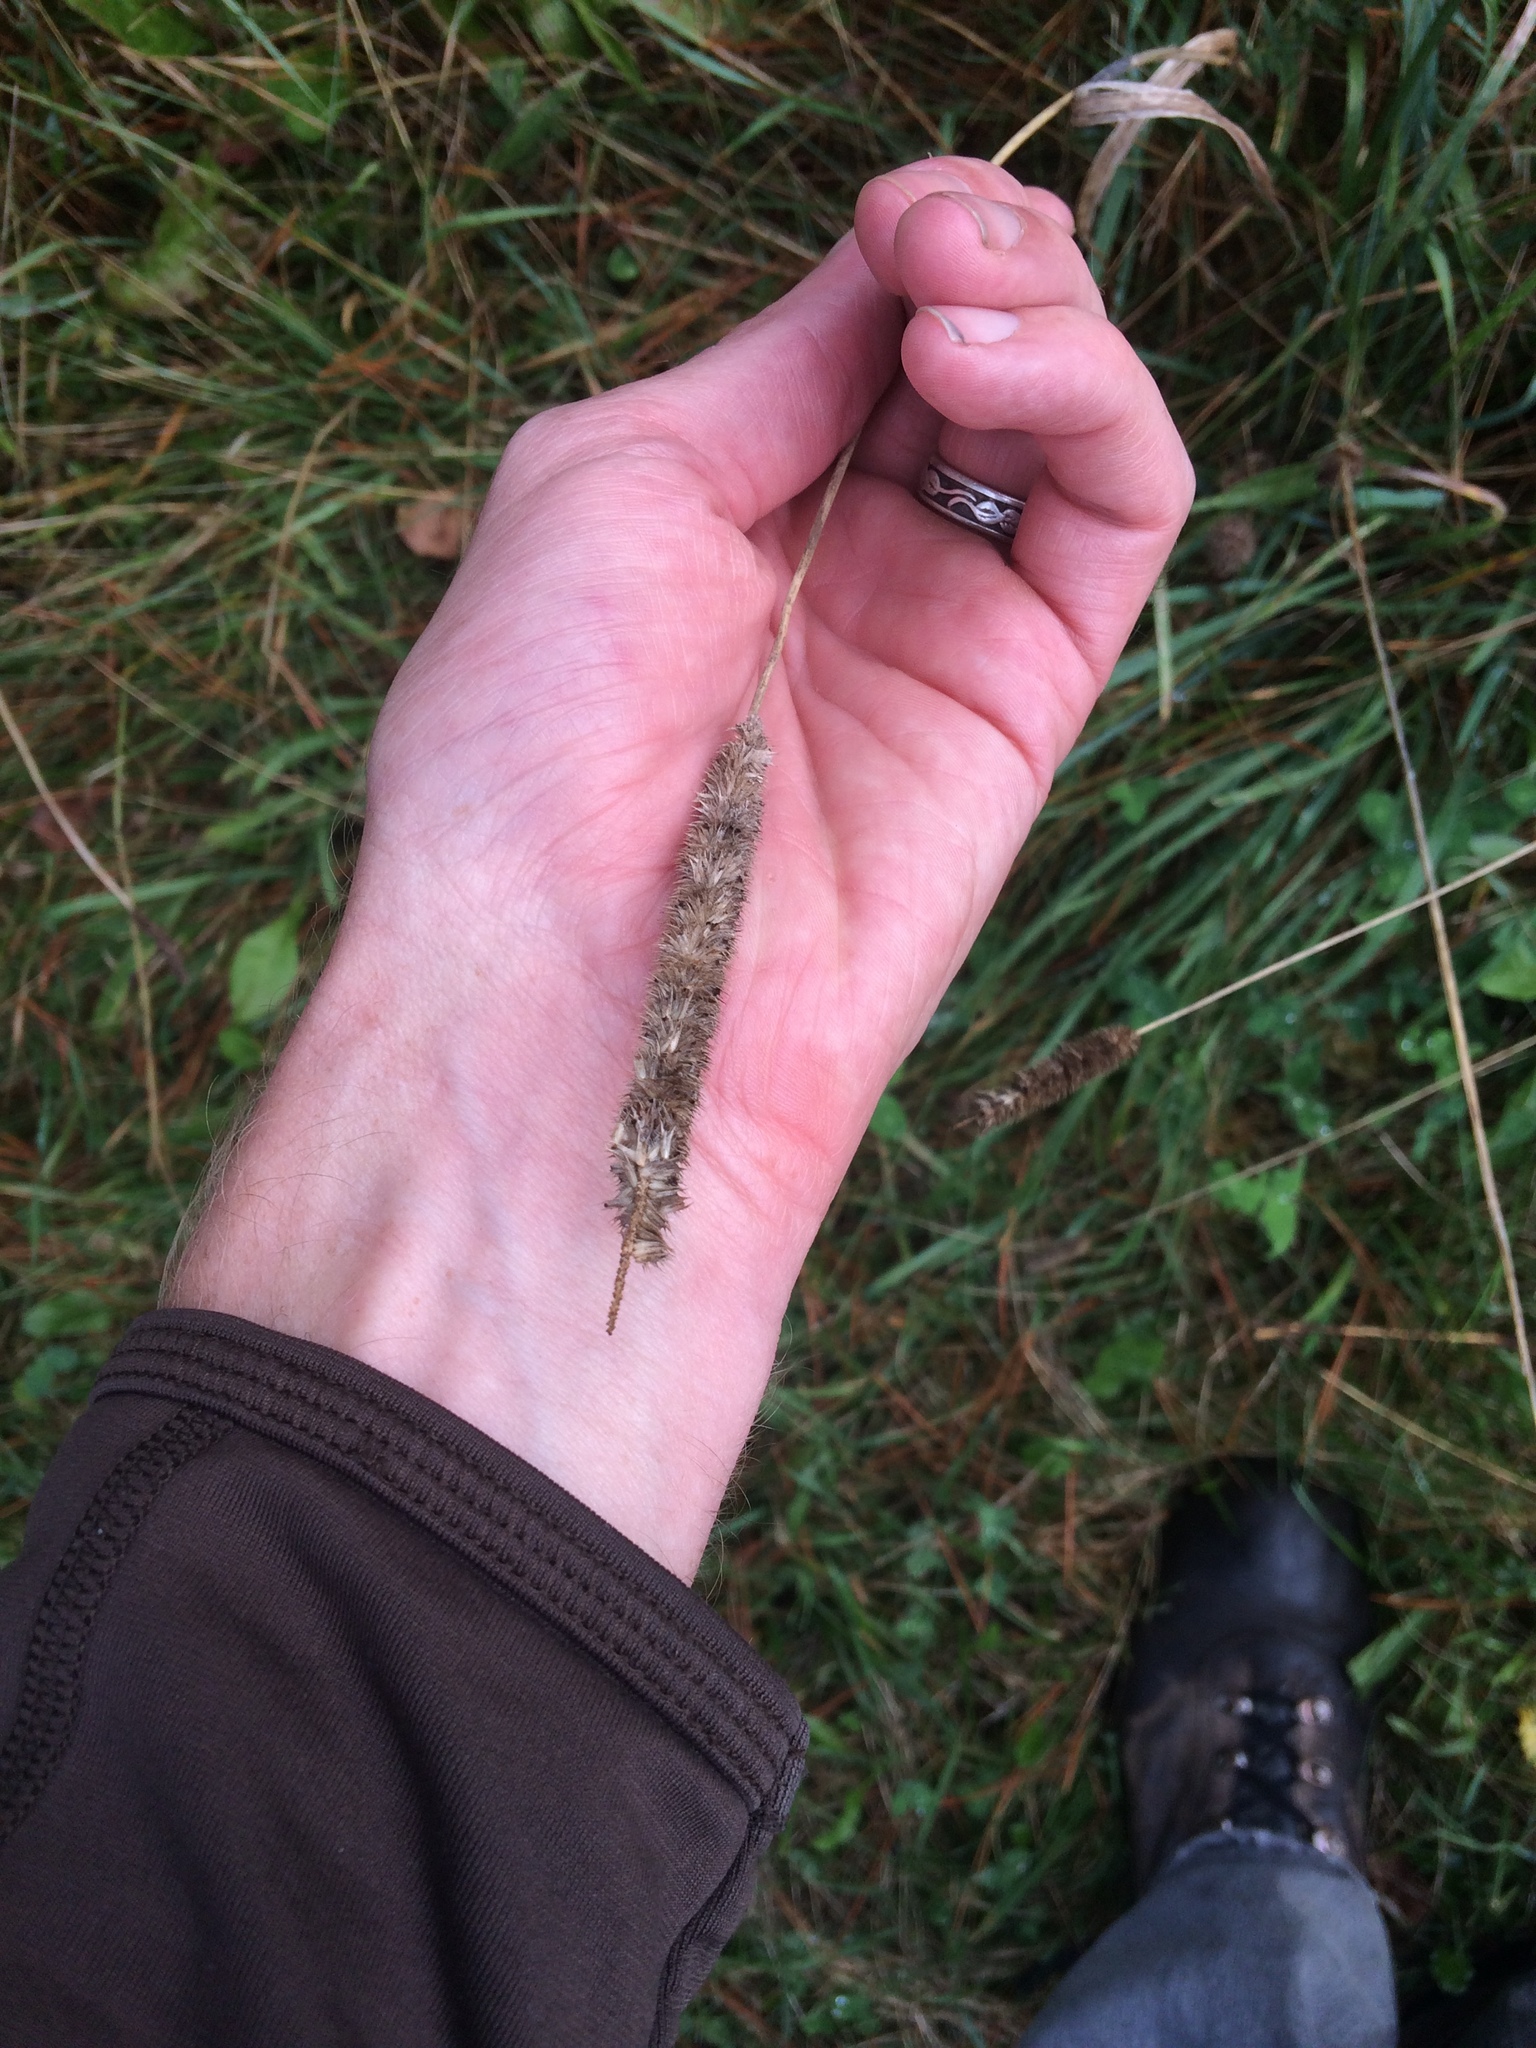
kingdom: Plantae
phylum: Tracheophyta
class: Liliopsida
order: Poales
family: Poaceae
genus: Phleum
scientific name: Phleum pratense
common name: Timothy grass
